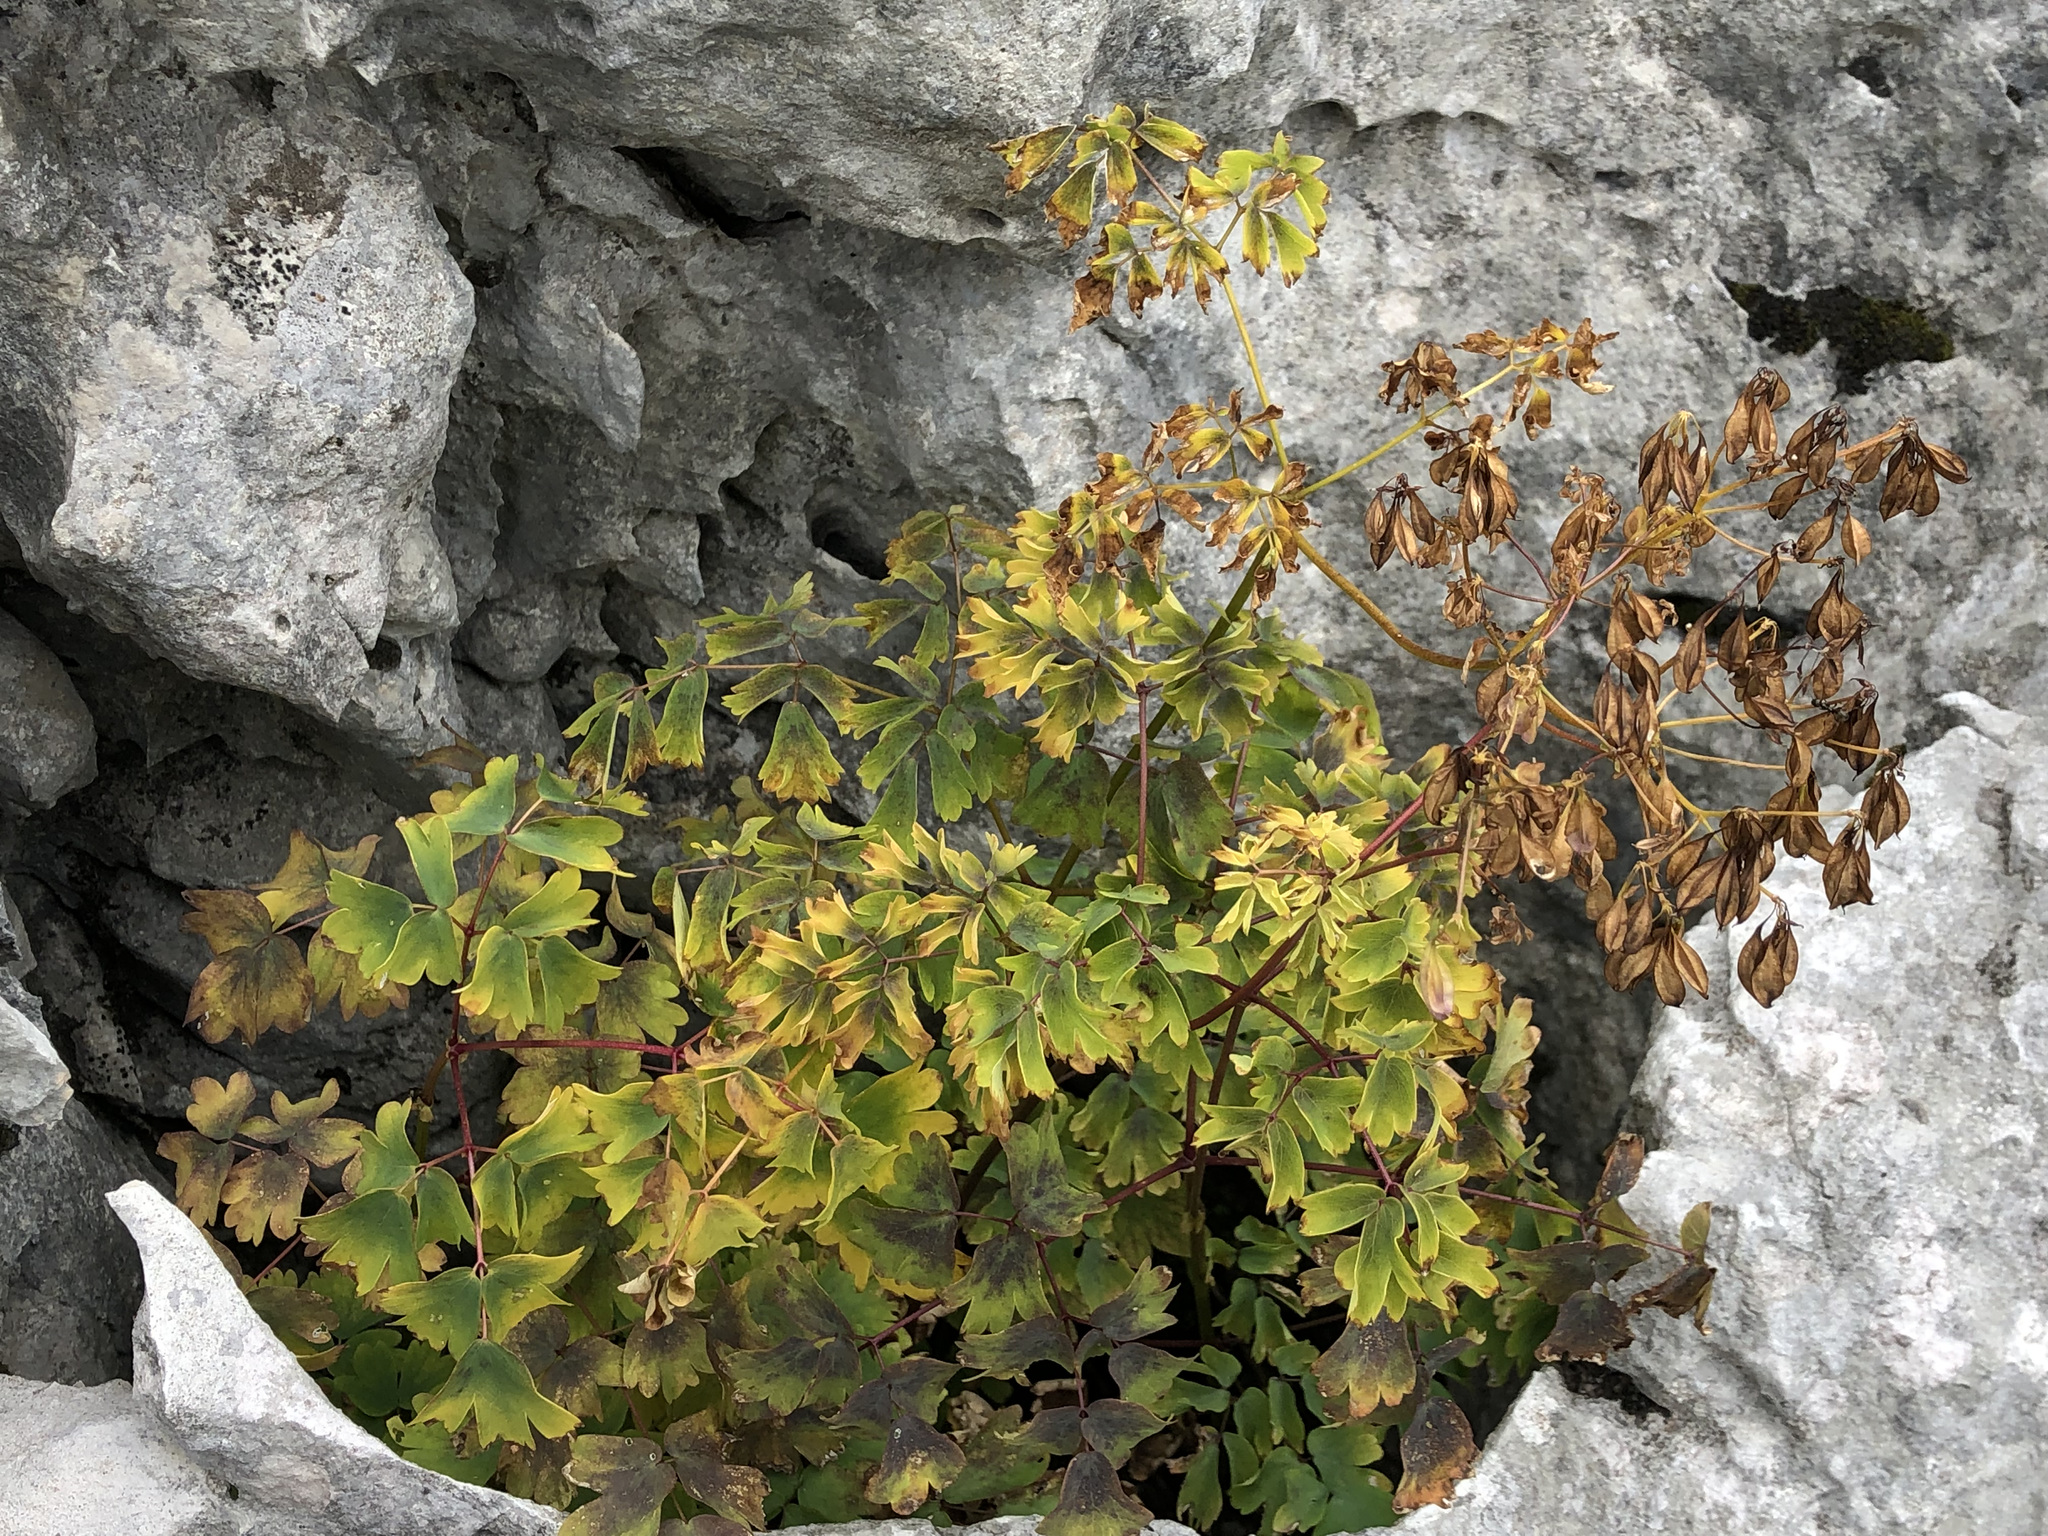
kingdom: Plantae
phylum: Tracheophyta
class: Magnoliopsida
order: Ranunculales
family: Ranunculaceae
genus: Thalictrum
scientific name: Thalictrum aquilegiifolium
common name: French meadow-rue
